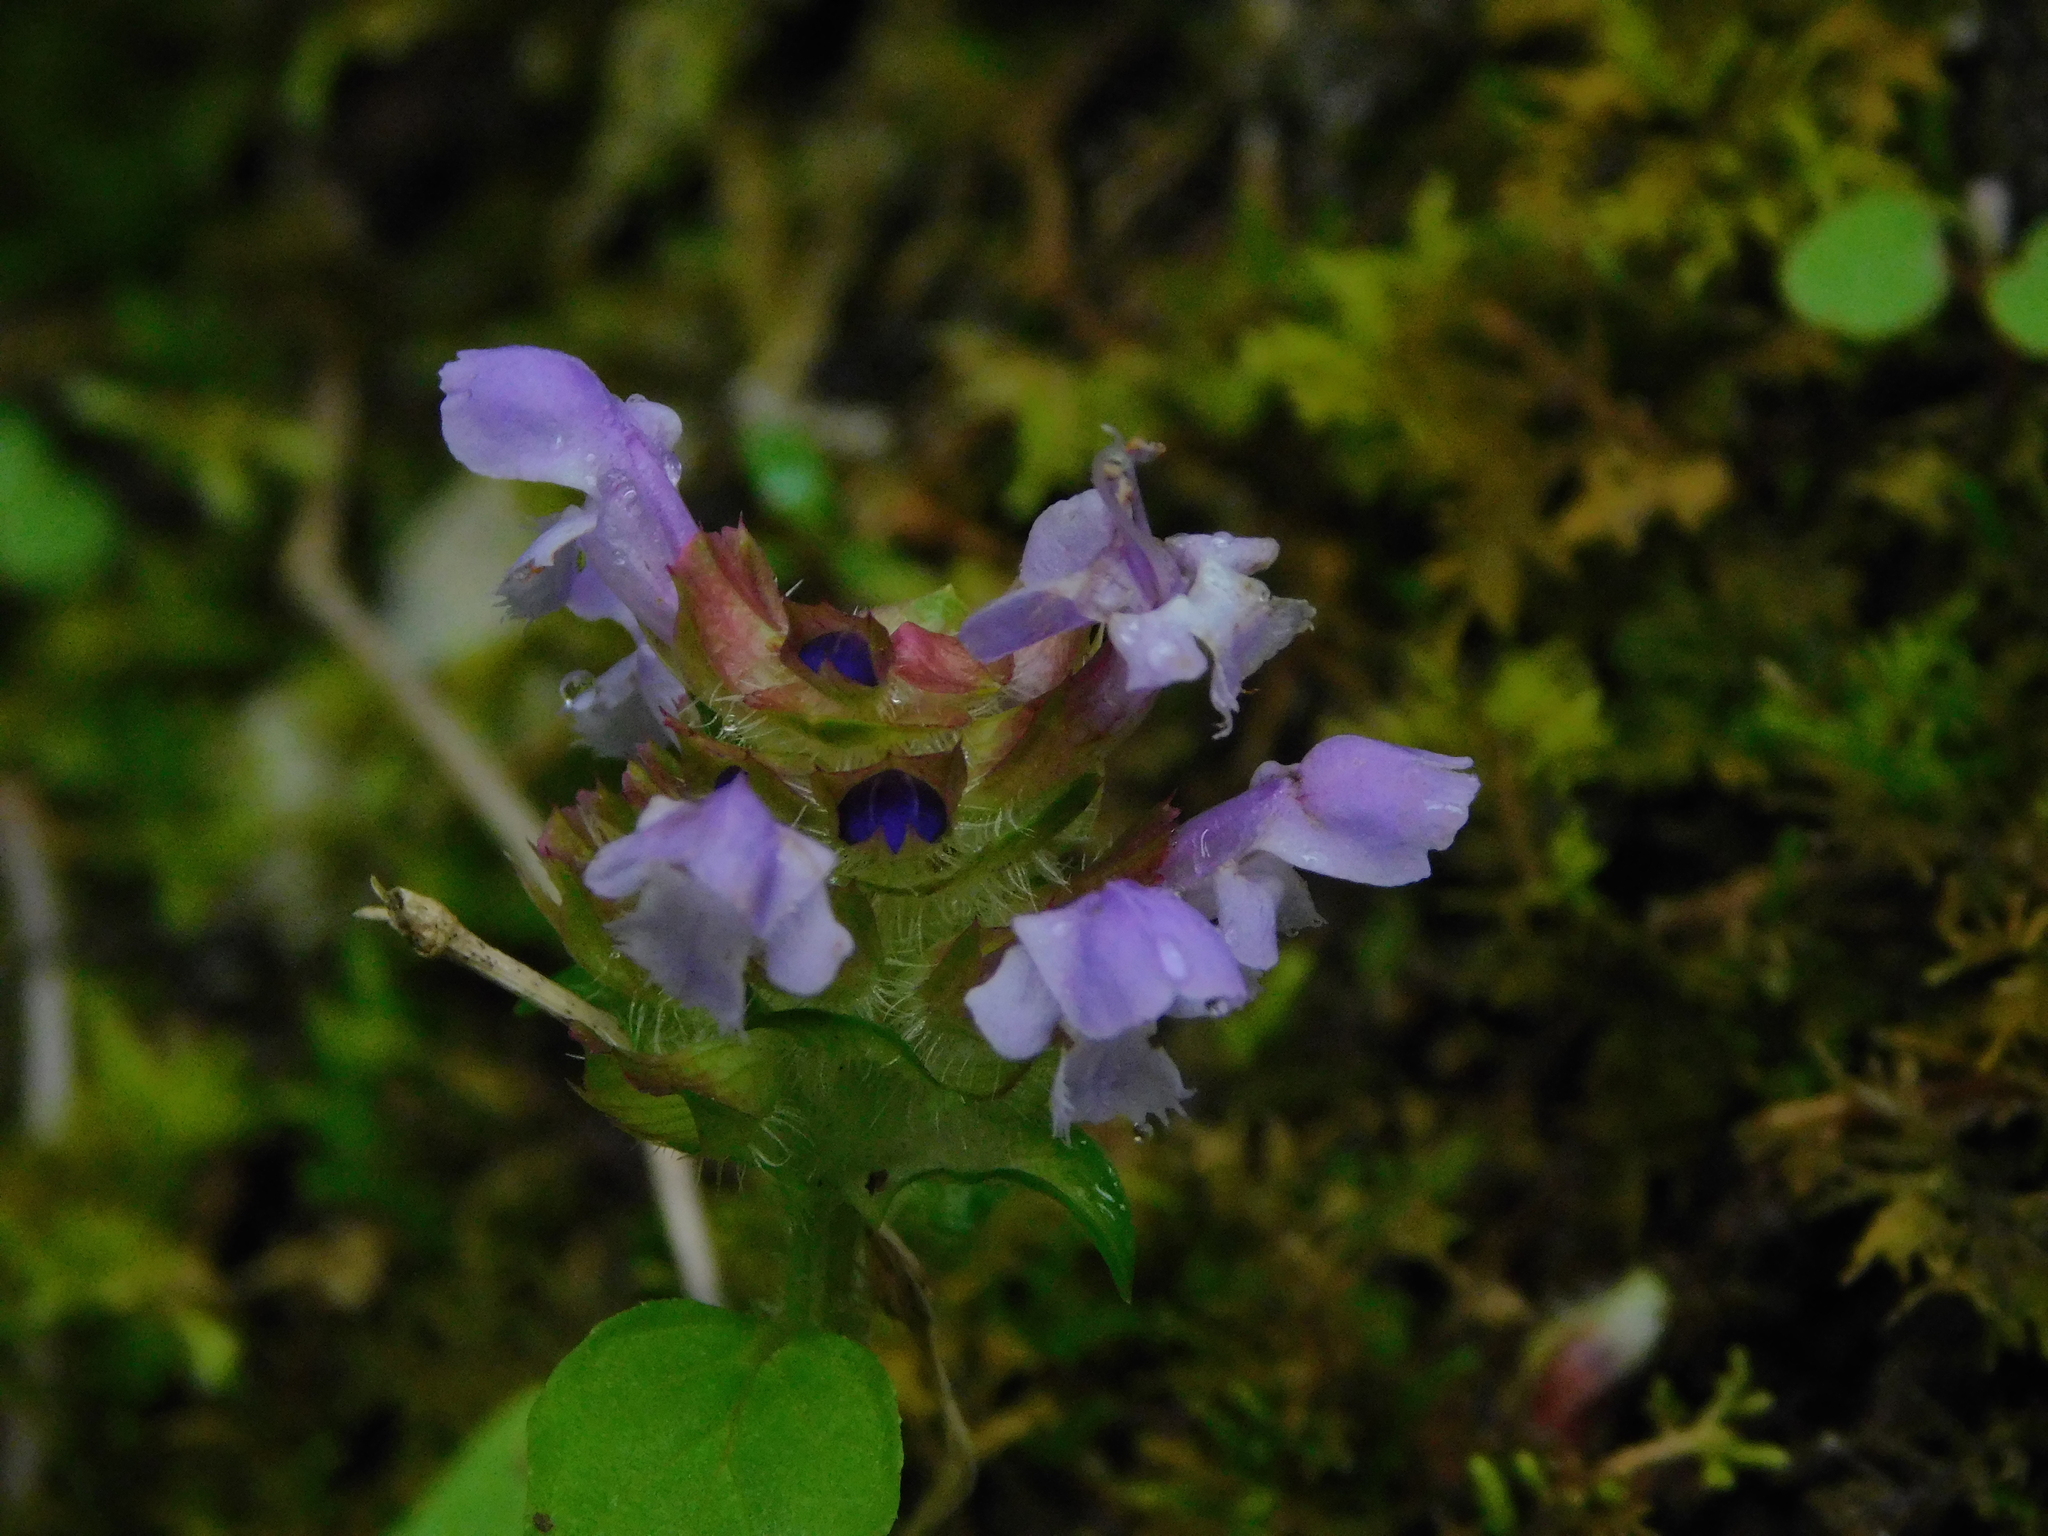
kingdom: Plantae
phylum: Tracheophyta
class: Magnoliopsida
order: Lamiales
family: Lamiaceae
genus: Prunella
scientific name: Prunella vulgaris
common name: Heal-all
